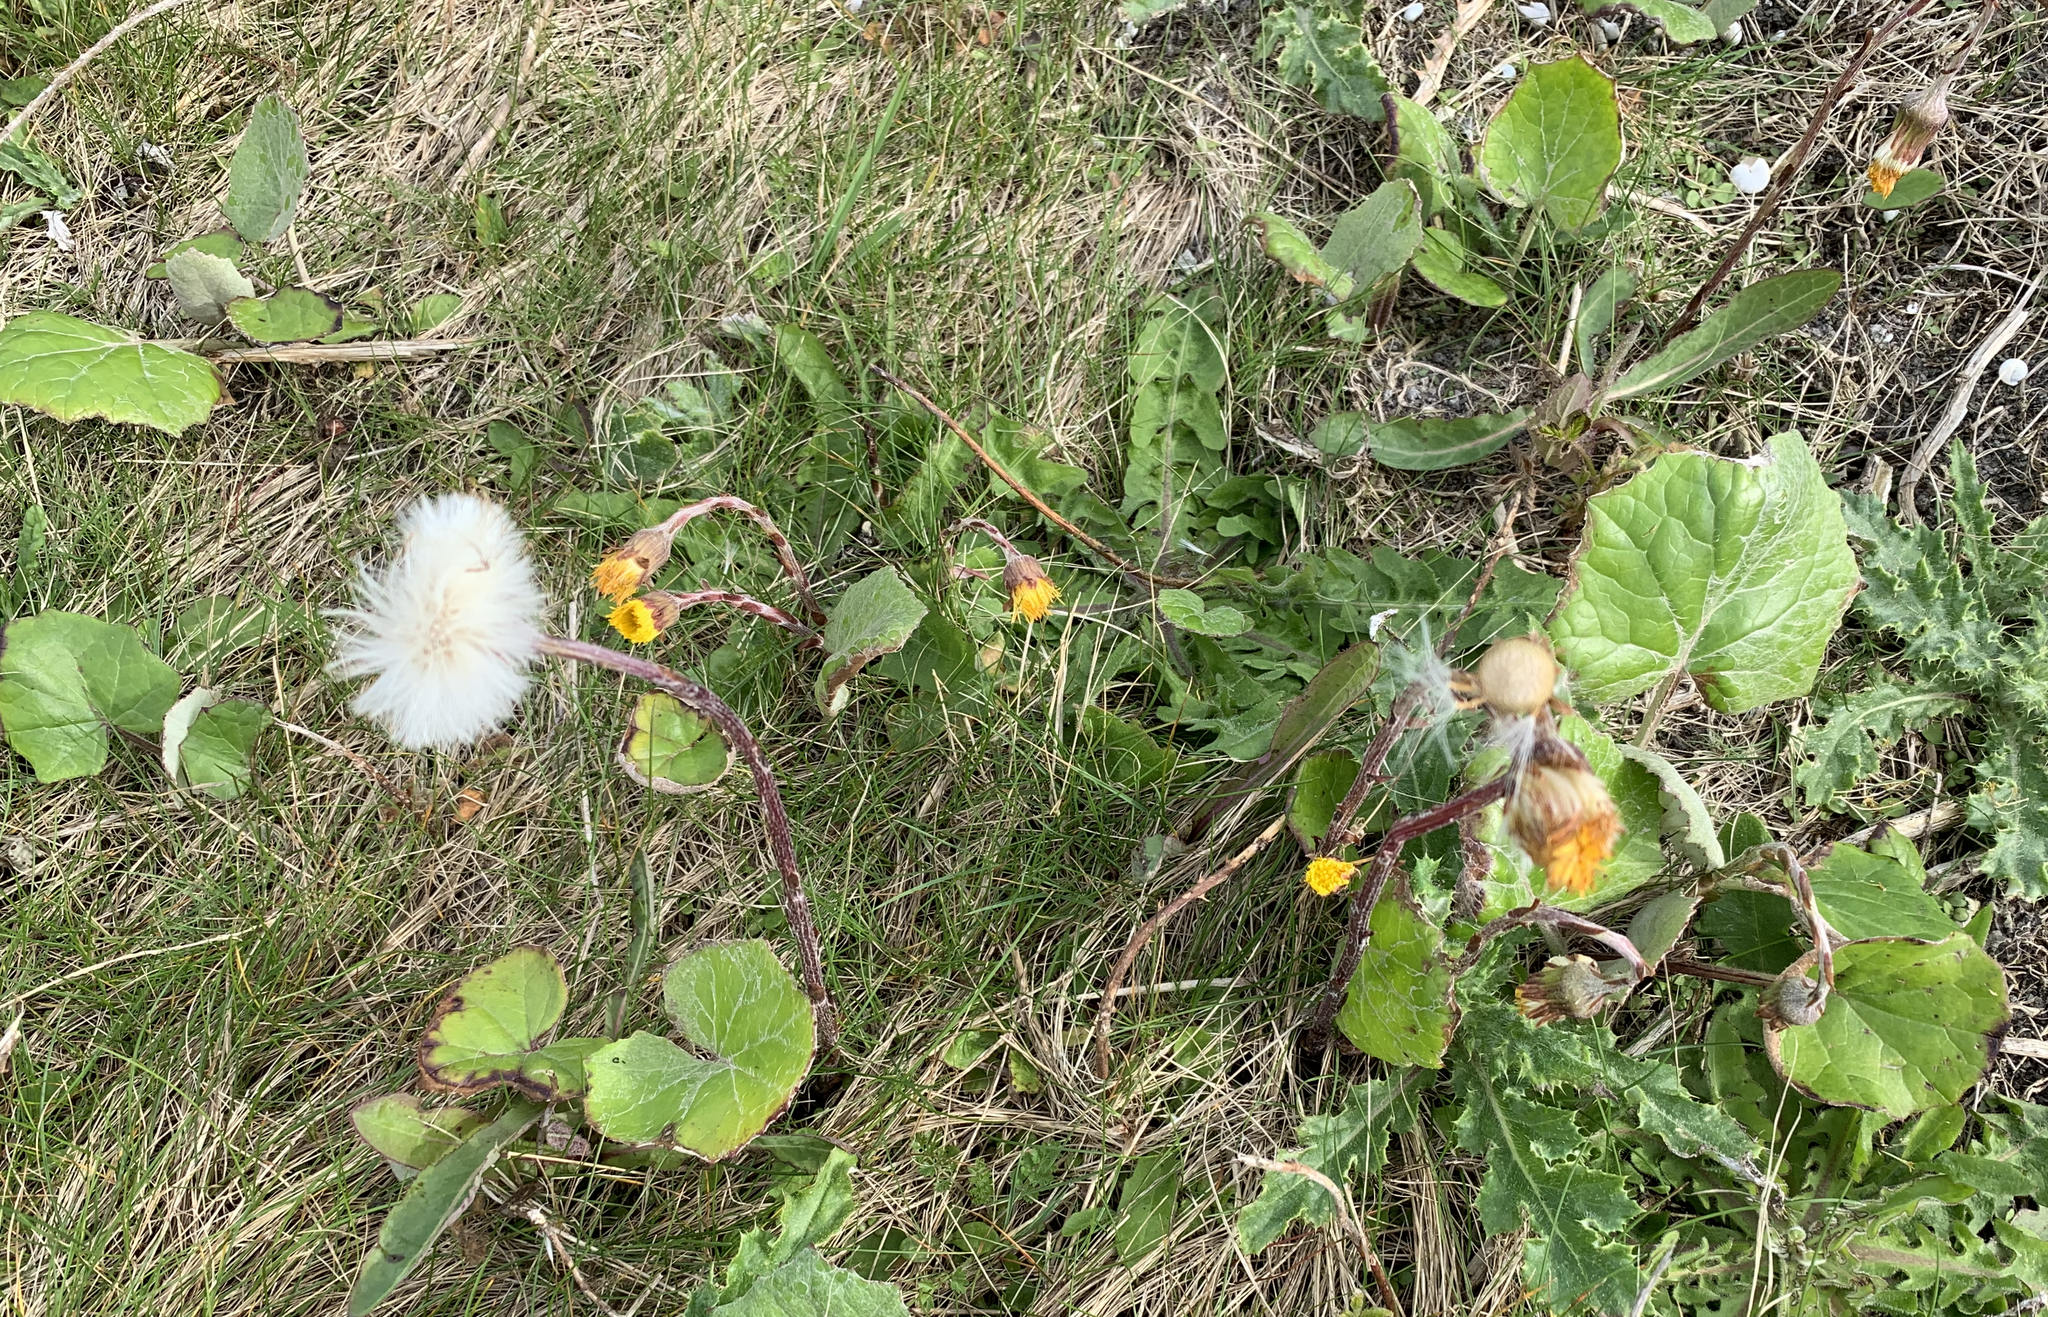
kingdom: Plantae
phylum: Tracheophyta
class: Magnoliopsida
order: Asterales
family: Asteraceae
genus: Tussilago
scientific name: Tussilago farfara
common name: Coltsfoot
